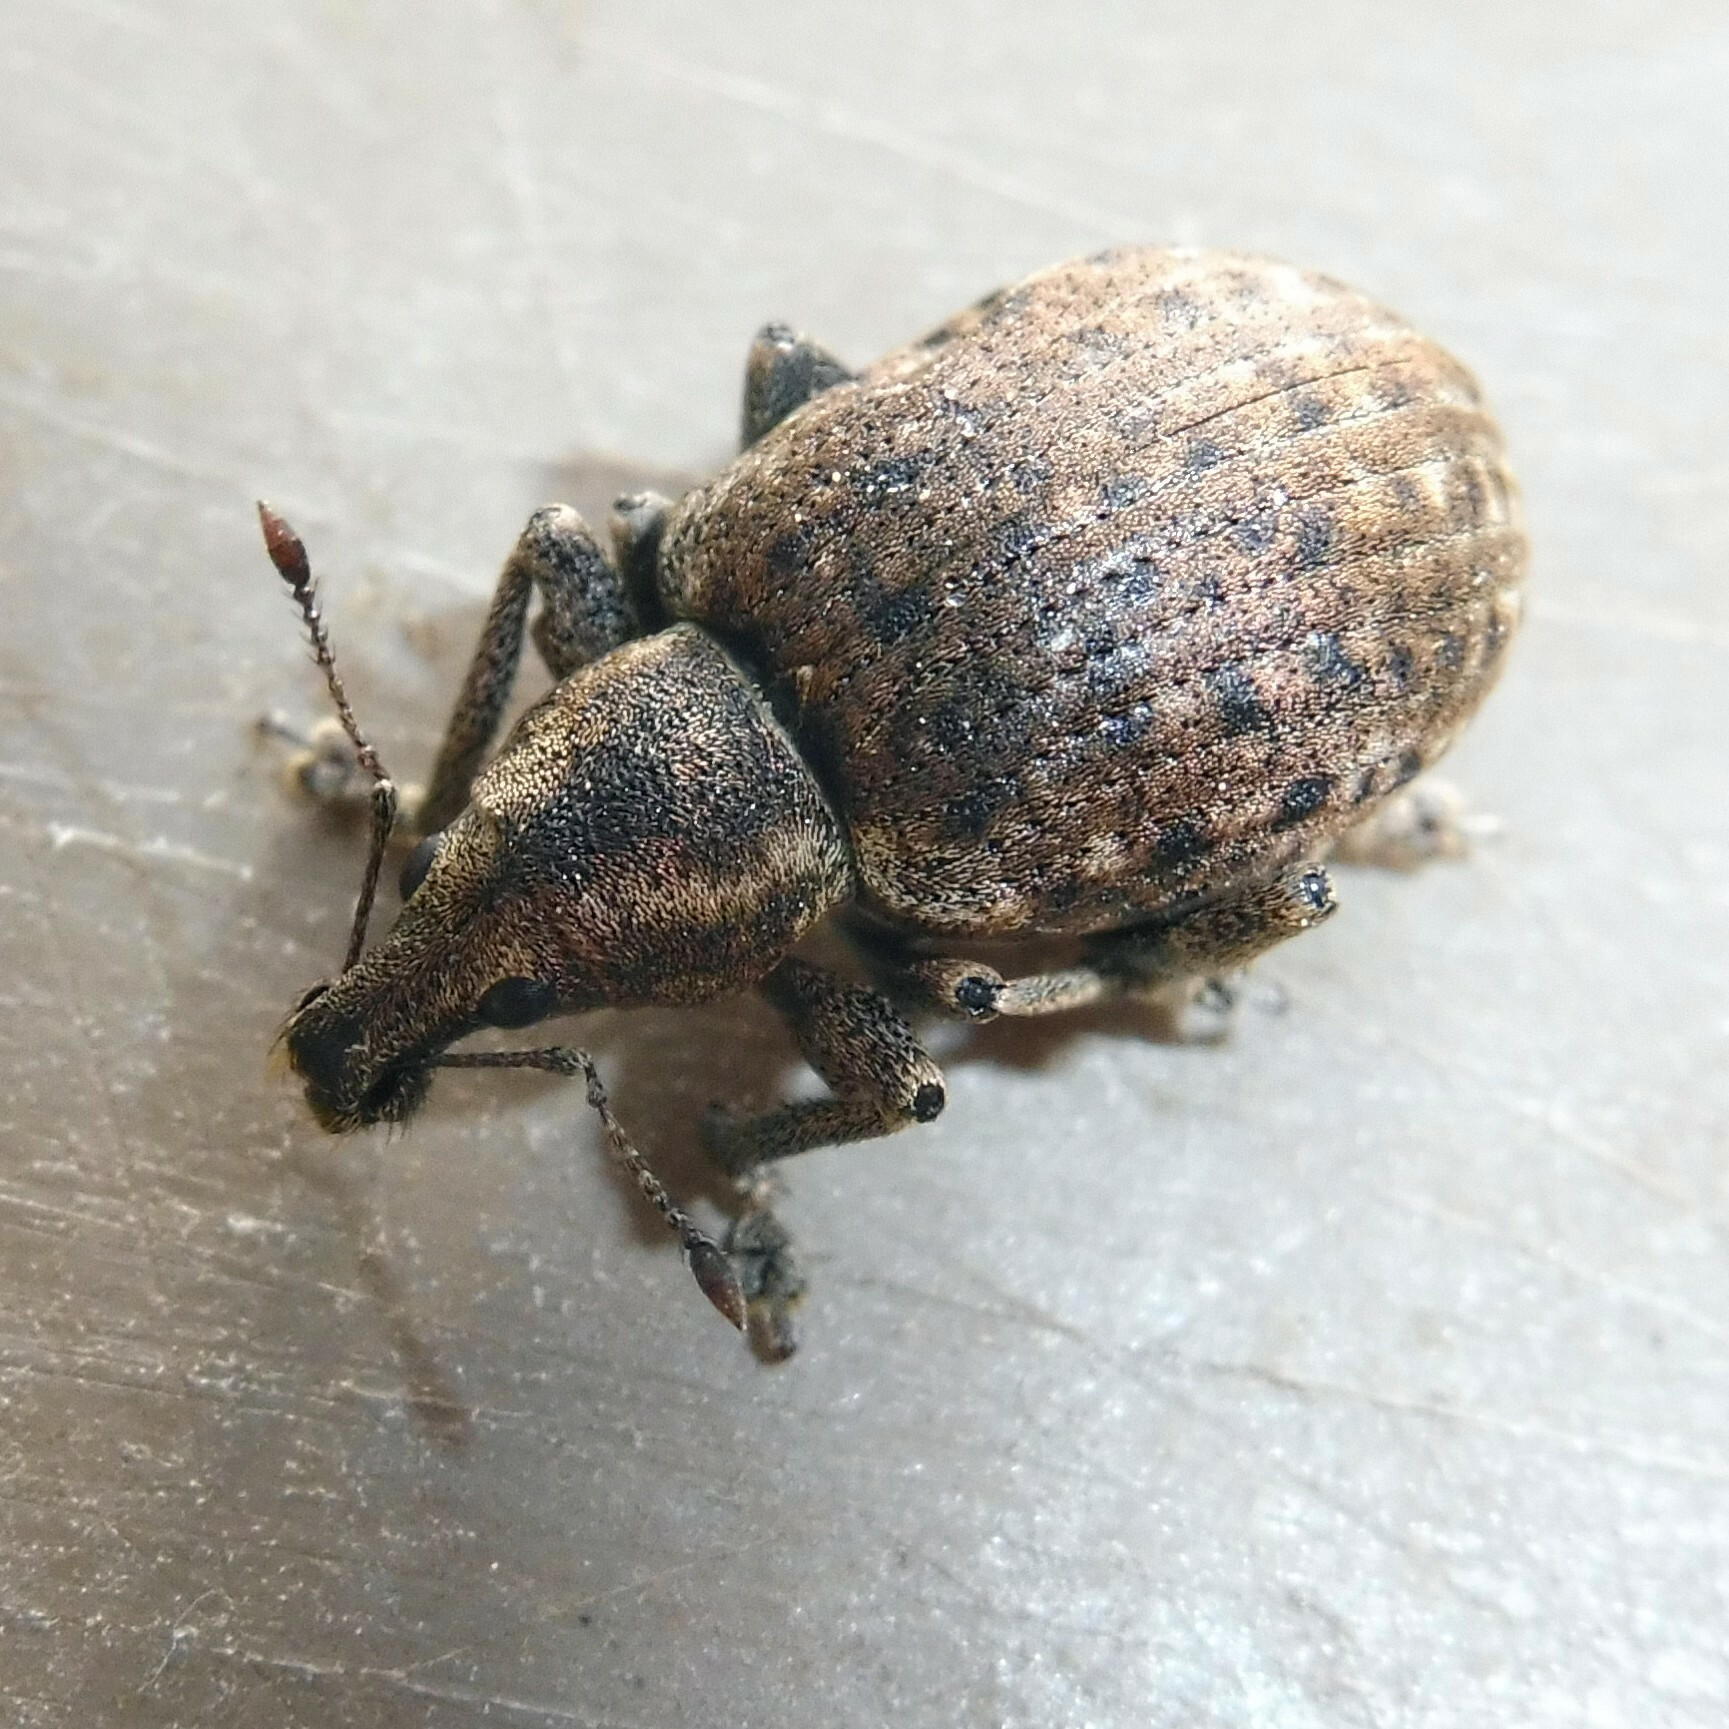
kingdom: Animalia
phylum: Arthropoda
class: Insecta
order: Coleoptera
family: Curculionidae
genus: Liophloeus
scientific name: Liophloeus tessulatus
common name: Weevil
